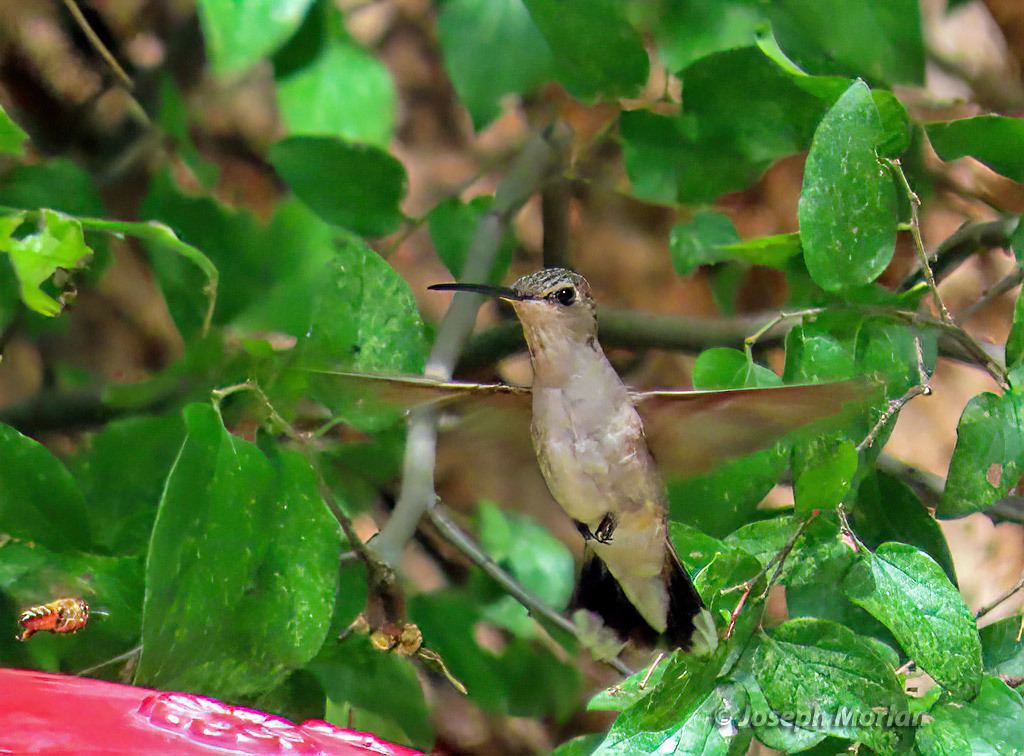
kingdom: Animalia
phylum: Chordata
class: Aves
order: Apodiformes
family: Trochilidae
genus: Archilochus
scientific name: Archilochus alexandri
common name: Black-chinned hummingbird
